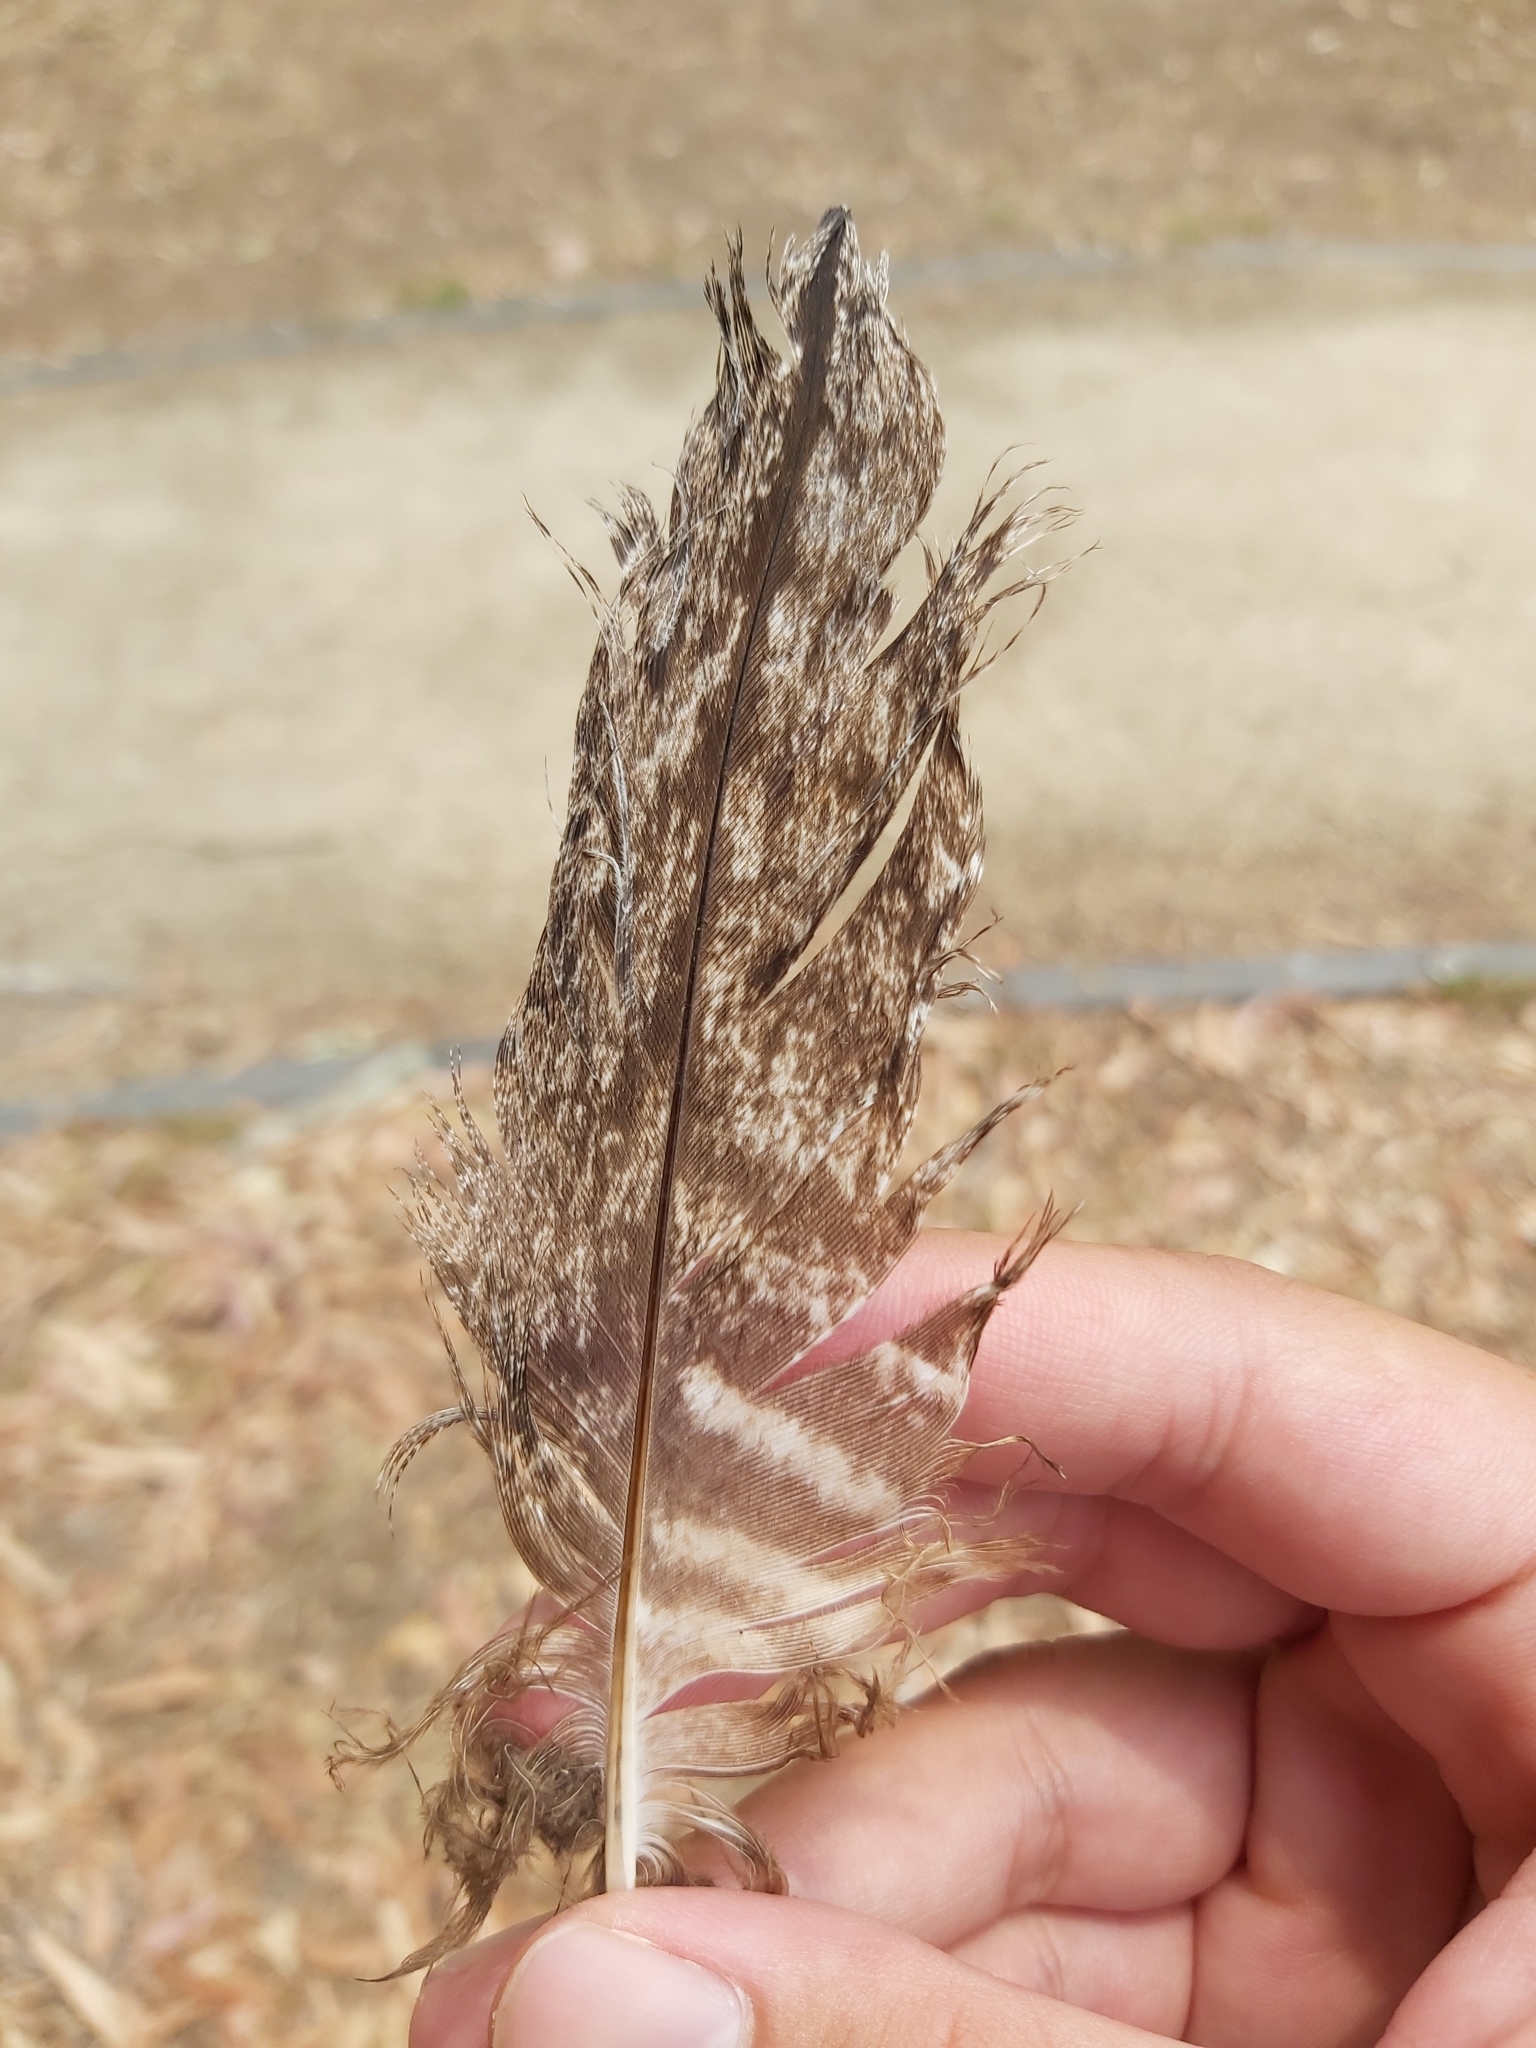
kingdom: Animalia
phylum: Chordata
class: Aves
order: Caprimulgiformes
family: Podargidae
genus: Podargus
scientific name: Podargus strigoides
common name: Tawny frogmouth
